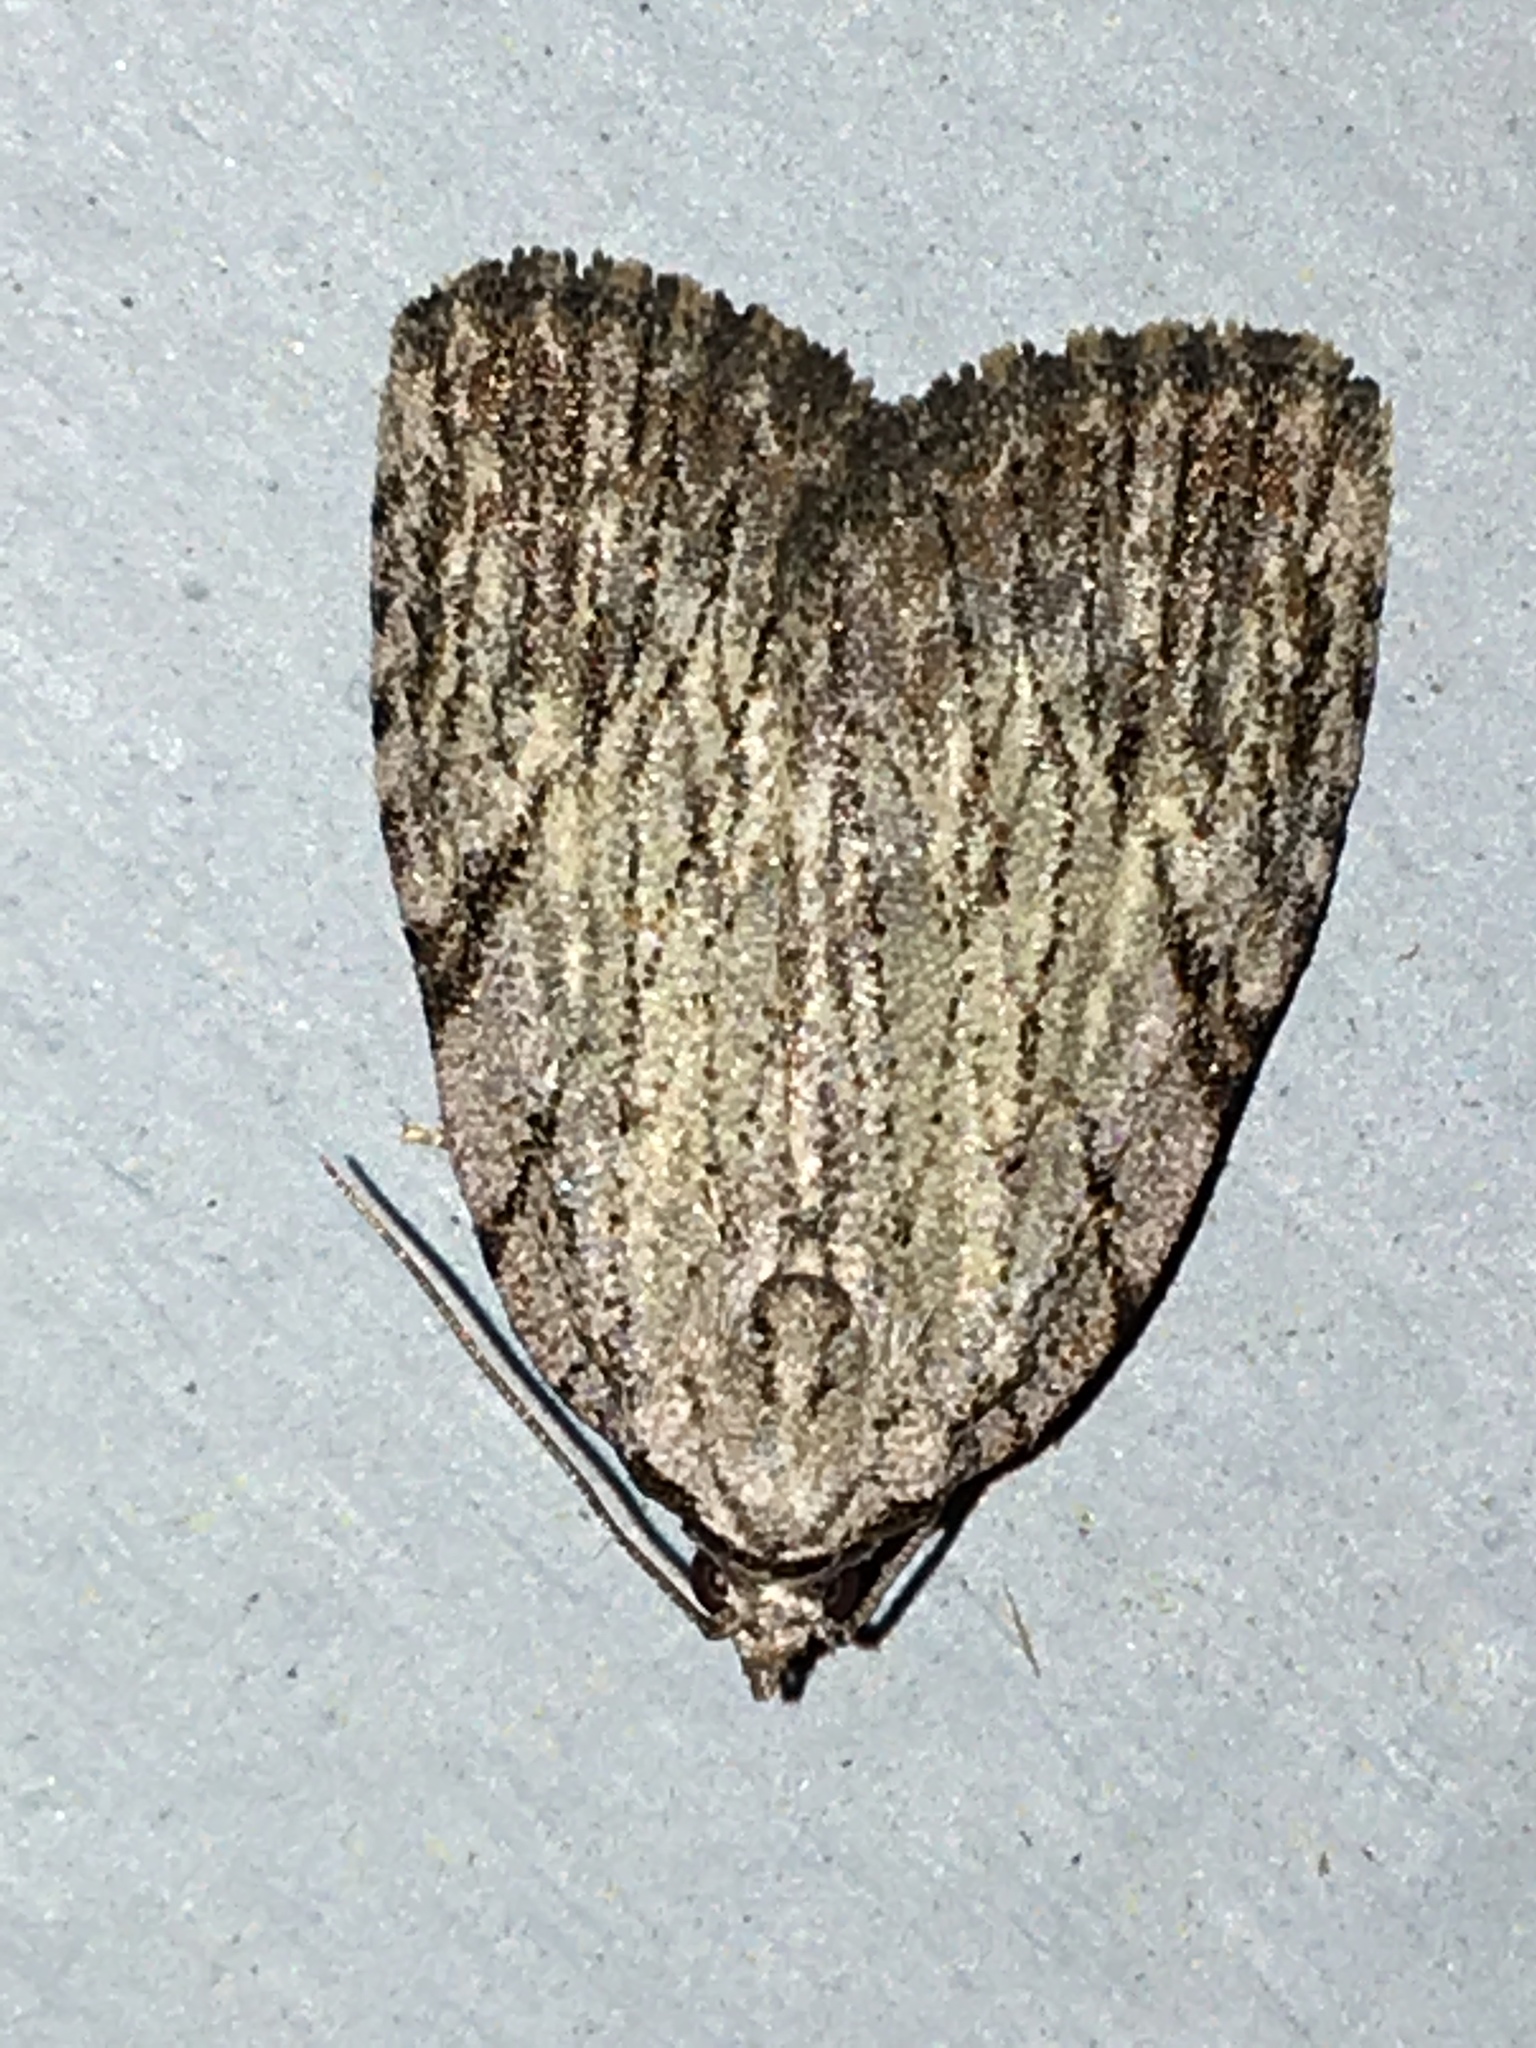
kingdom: Animalia
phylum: Arthropoda
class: Insecta
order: Lepidoptera
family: Noctuidae
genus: Balsa
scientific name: Balsa tristrigella
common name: Three-lined balsa moth
